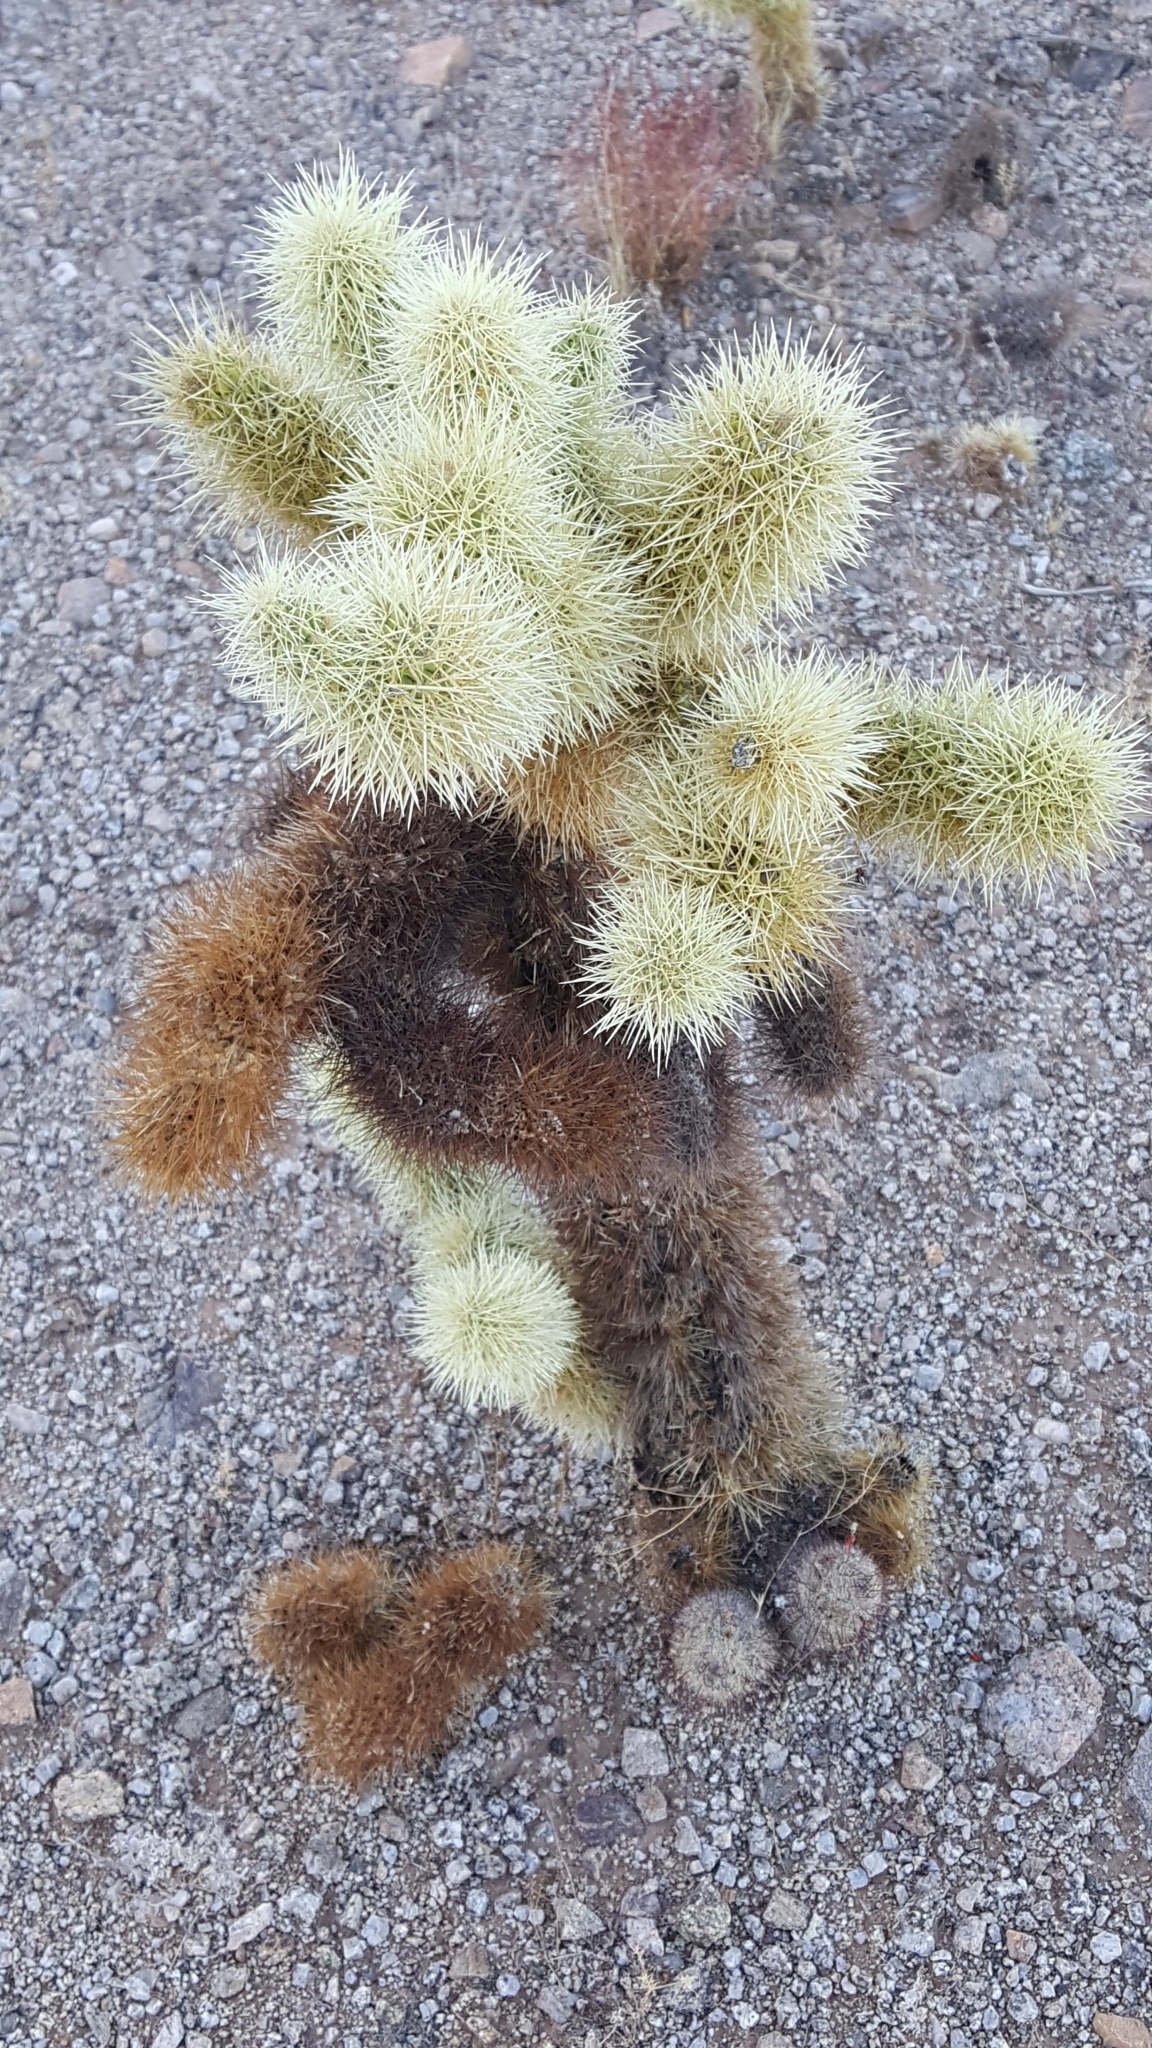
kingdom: Plantae
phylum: Tracheophyta
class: Magnoliopsida
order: Caryophyllales
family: Cactaceae
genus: Cylindropuntia
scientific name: Cylindropuntia fosbergii
